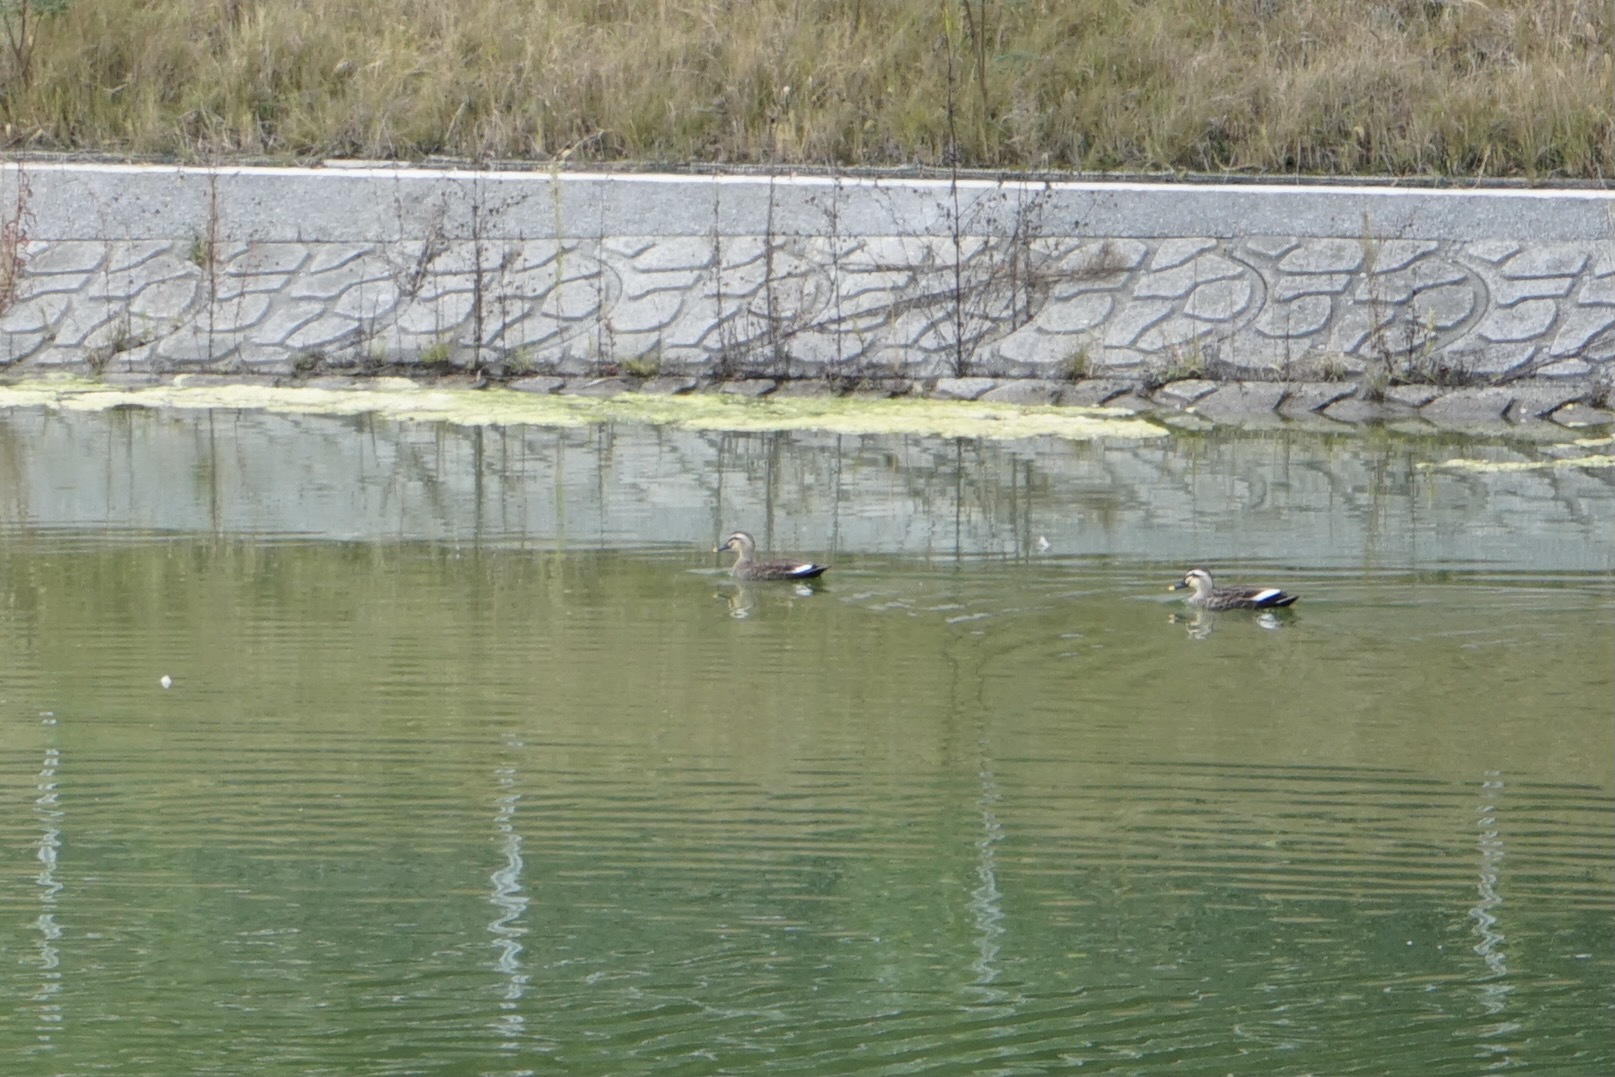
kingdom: Animalia
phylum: Chordata
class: Aves
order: Anseriformes
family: Anatidae
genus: Anas
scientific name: Anas zonorhyncha
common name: Eastern spot-billed duck
